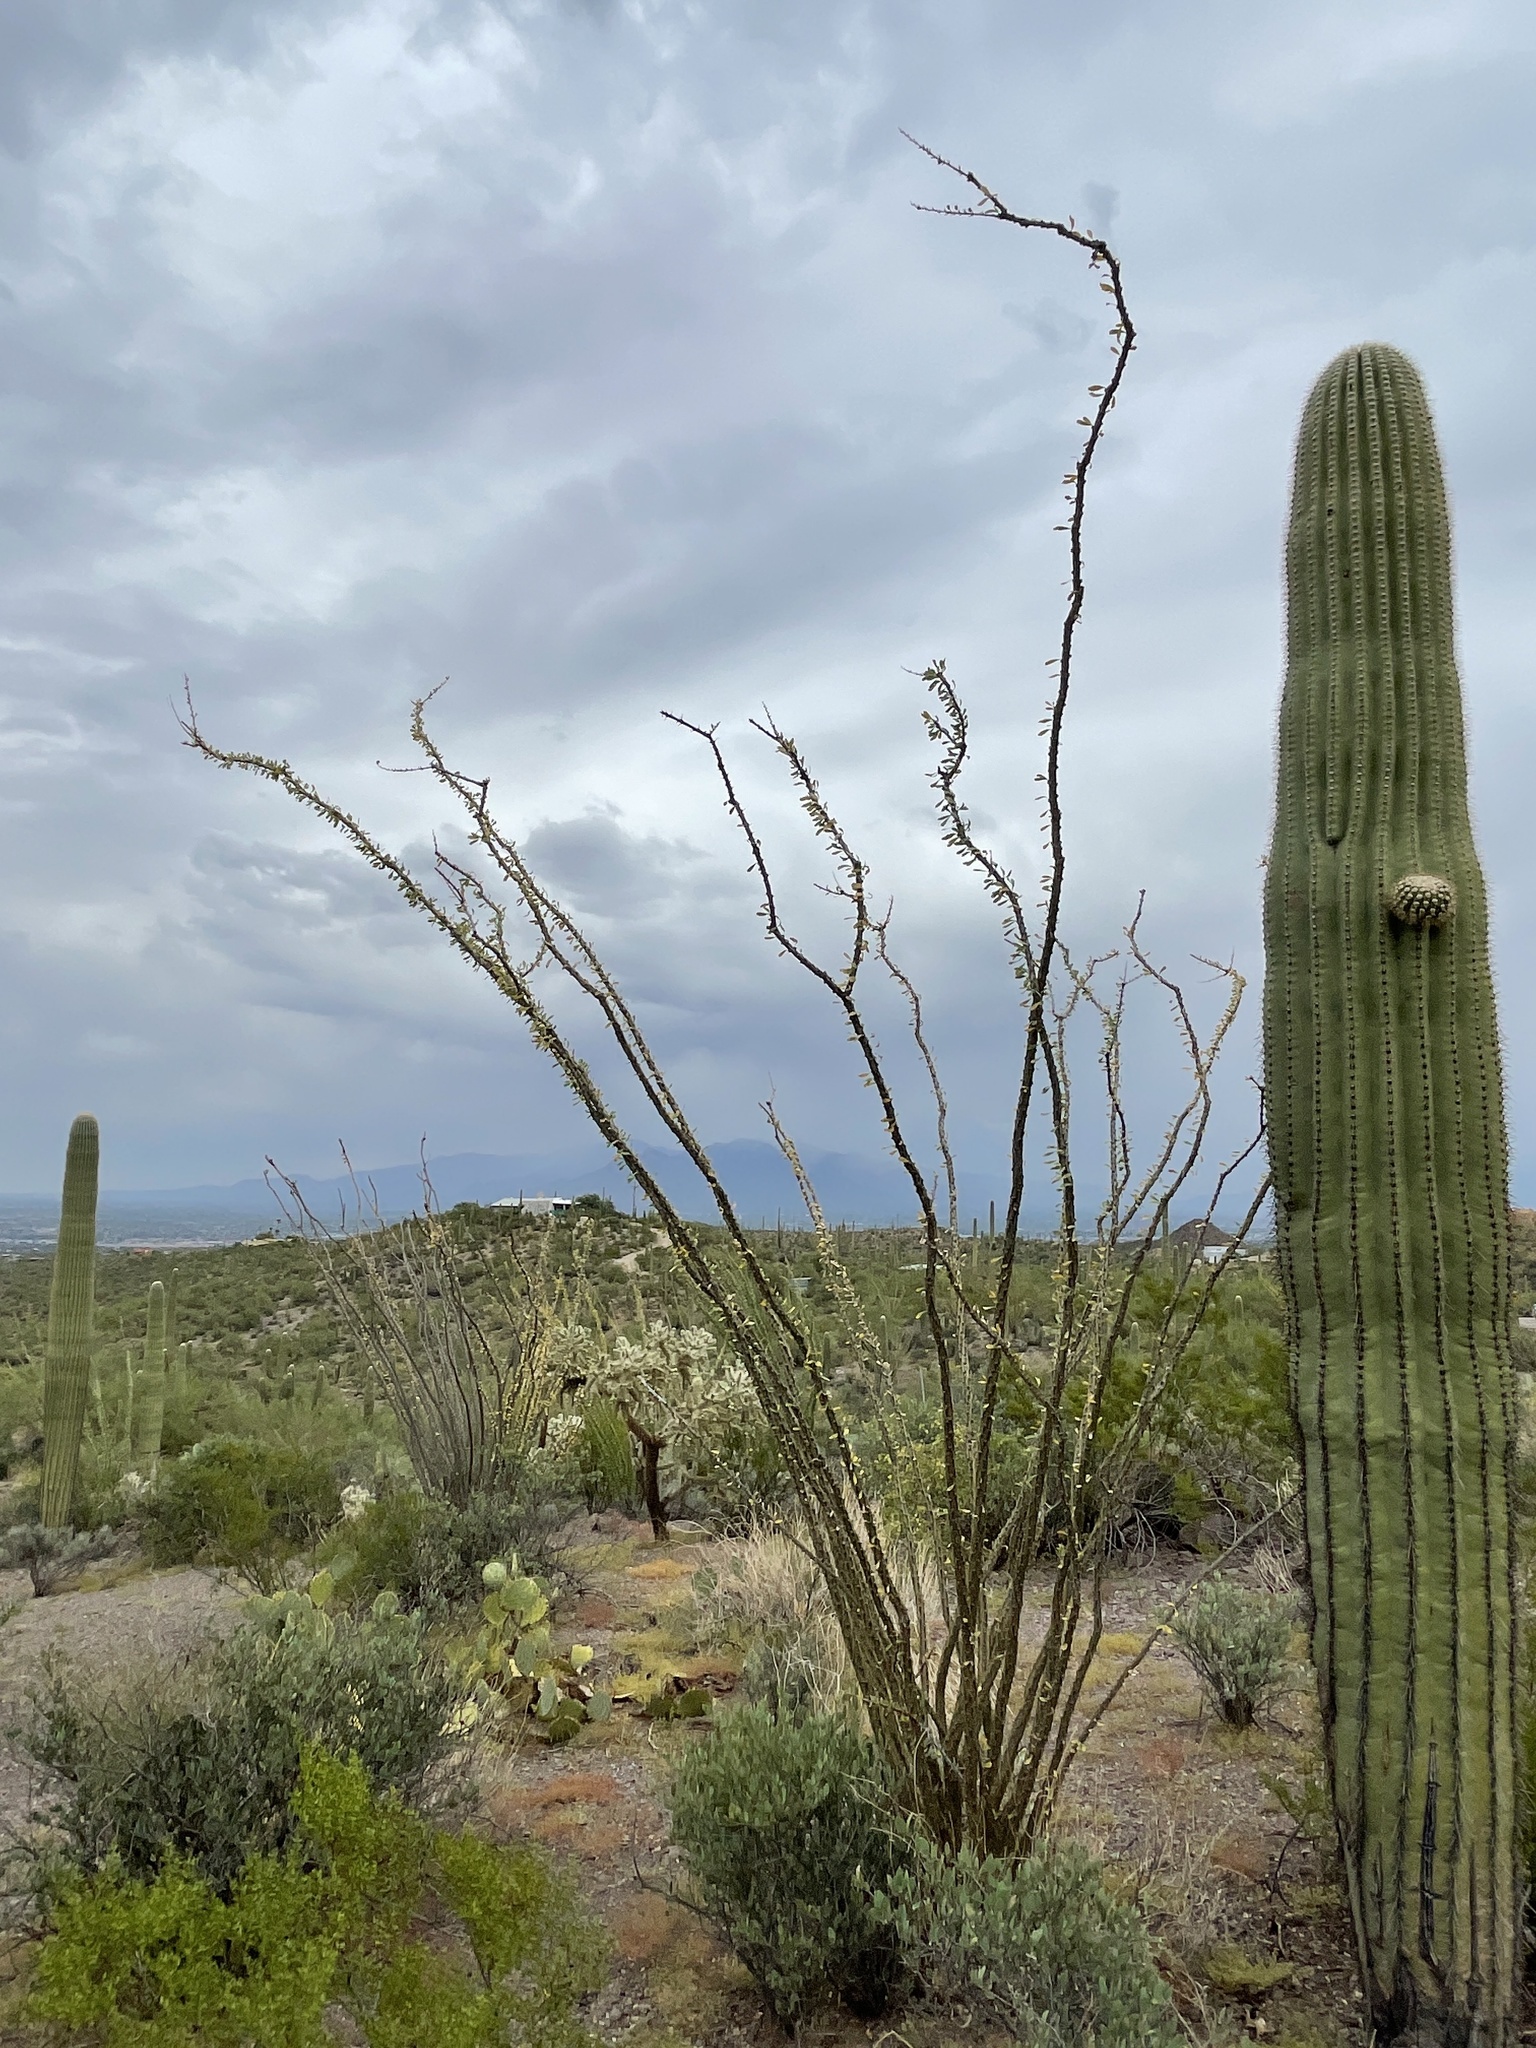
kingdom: Plantae
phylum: Tracheophyta
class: Magnoliopsida
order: Ericales
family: Fouquieriaceae
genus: Fouquieria
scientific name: Fouquieria splendens
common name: Vine-cactus
